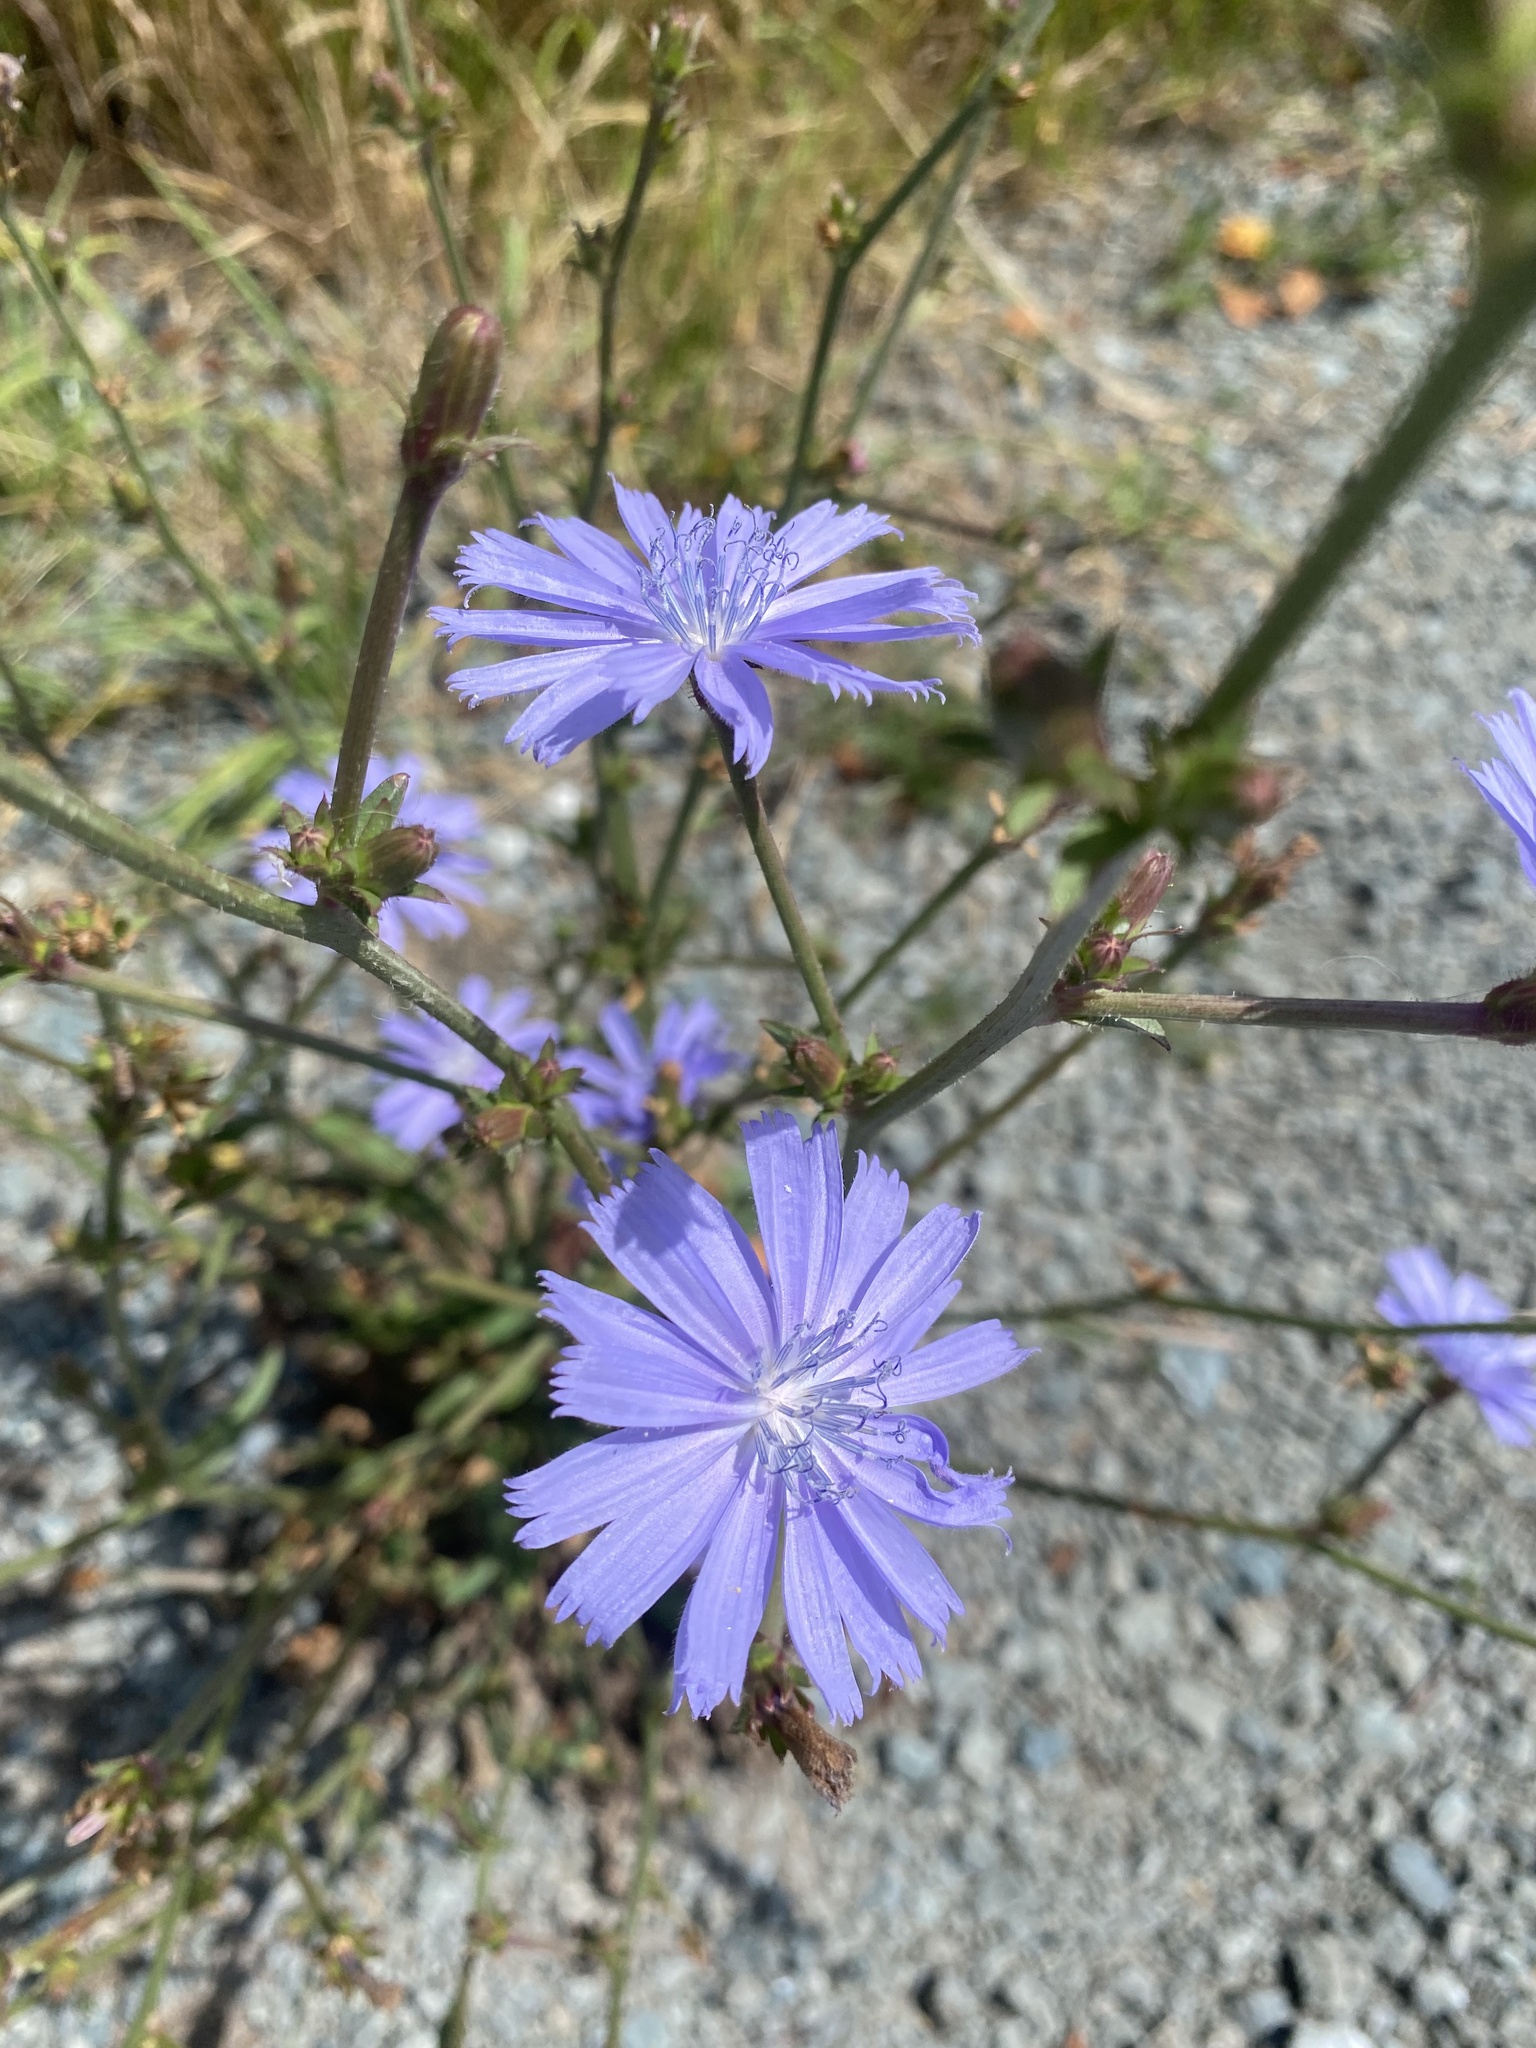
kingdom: Plantae
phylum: Tracheophyta
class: Magnoliopsida
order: Asterales
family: Asteraceae
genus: Cichorium
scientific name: Cichorium intybus
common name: Chicory
